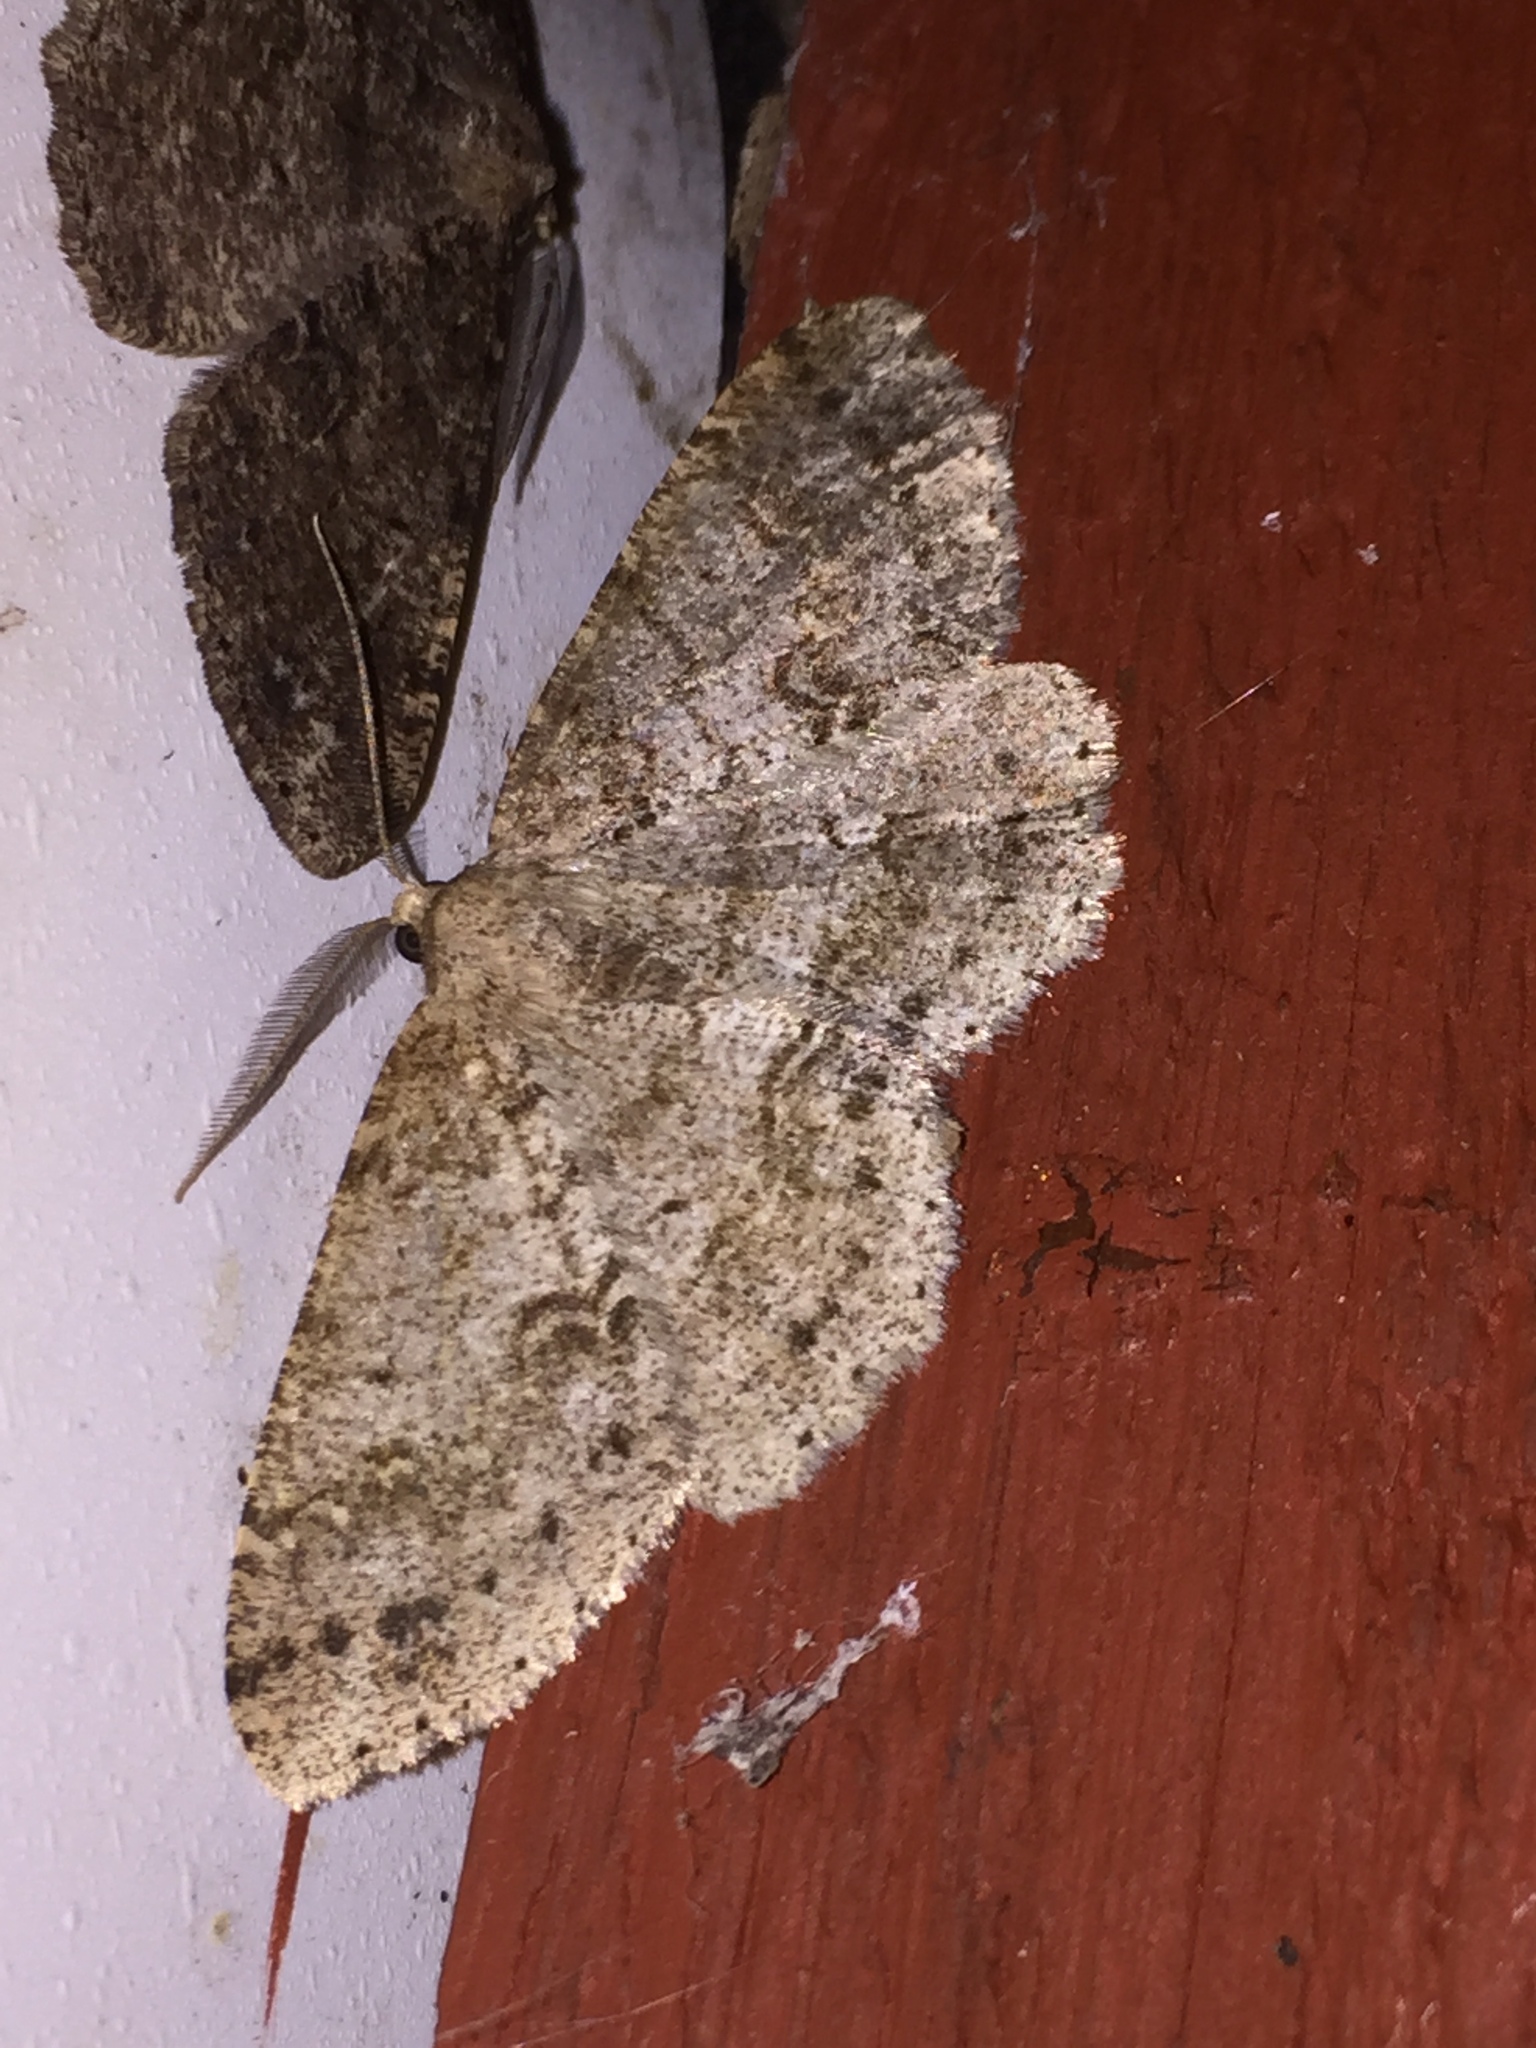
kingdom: Animalia
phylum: Arthropoda
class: Insecta
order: Lepidoptera
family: Geometridae
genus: Melanolophia
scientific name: Melanolophia imitata
